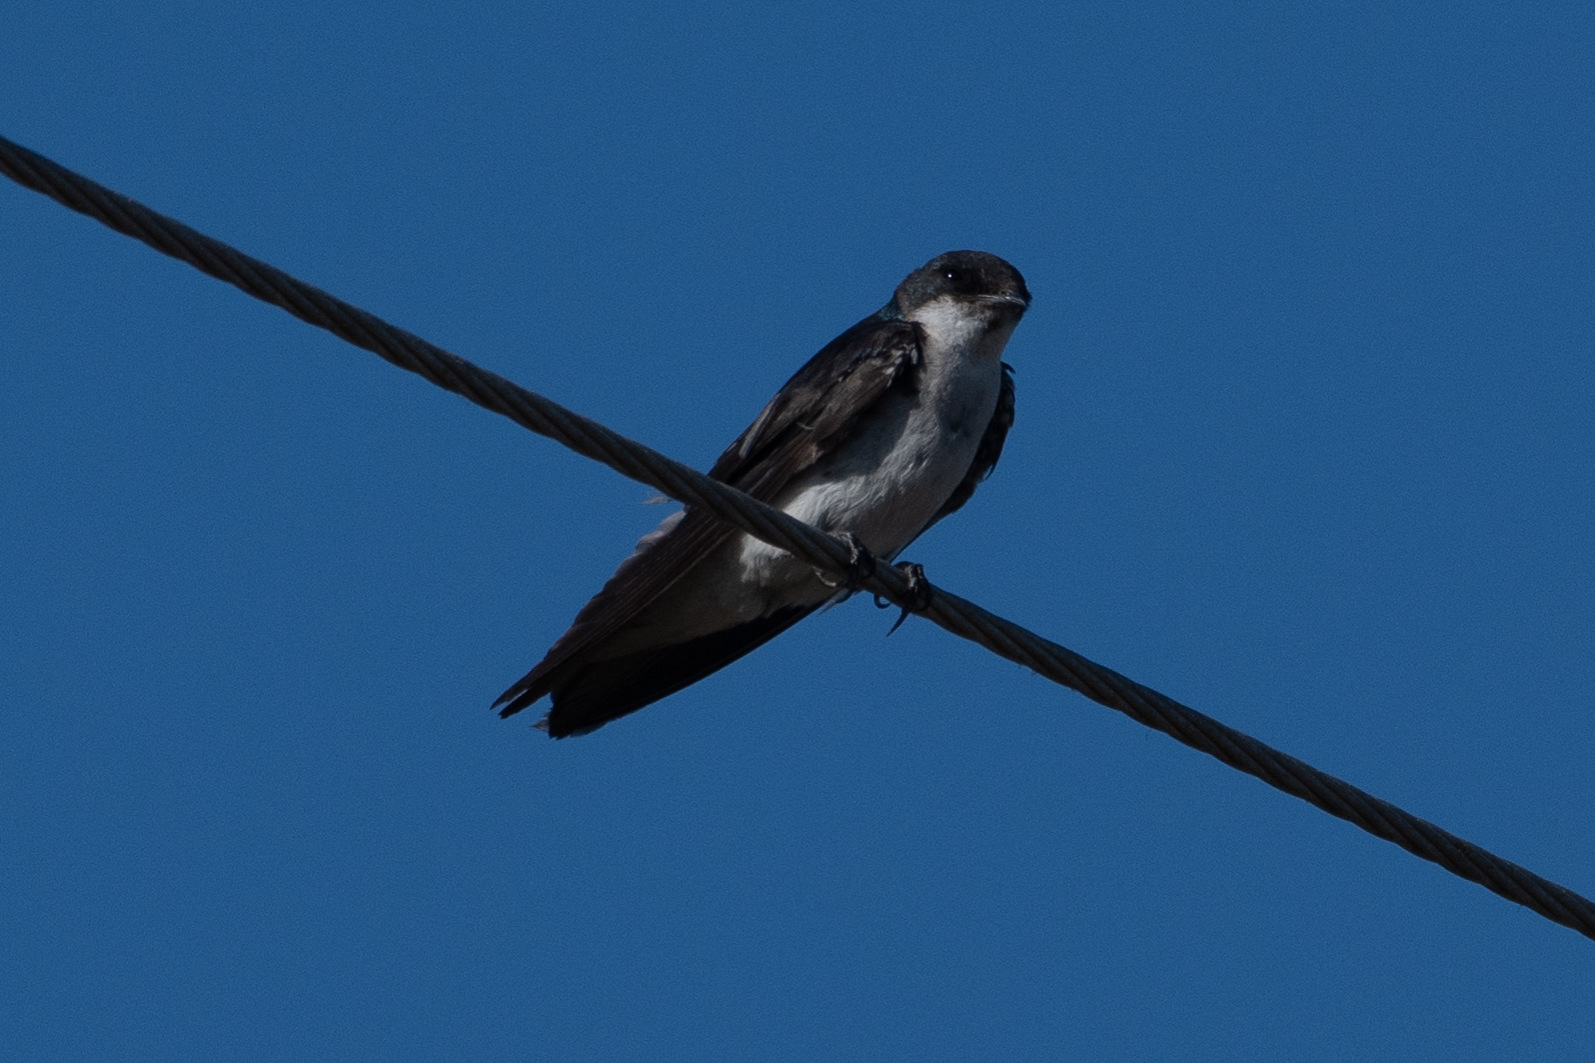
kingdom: Animalia
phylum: Chordata
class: Aves
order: Passeriformes
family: Hirundinidae
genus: Tachycineta
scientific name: Tachycineta bicolor
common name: Tree swallow
